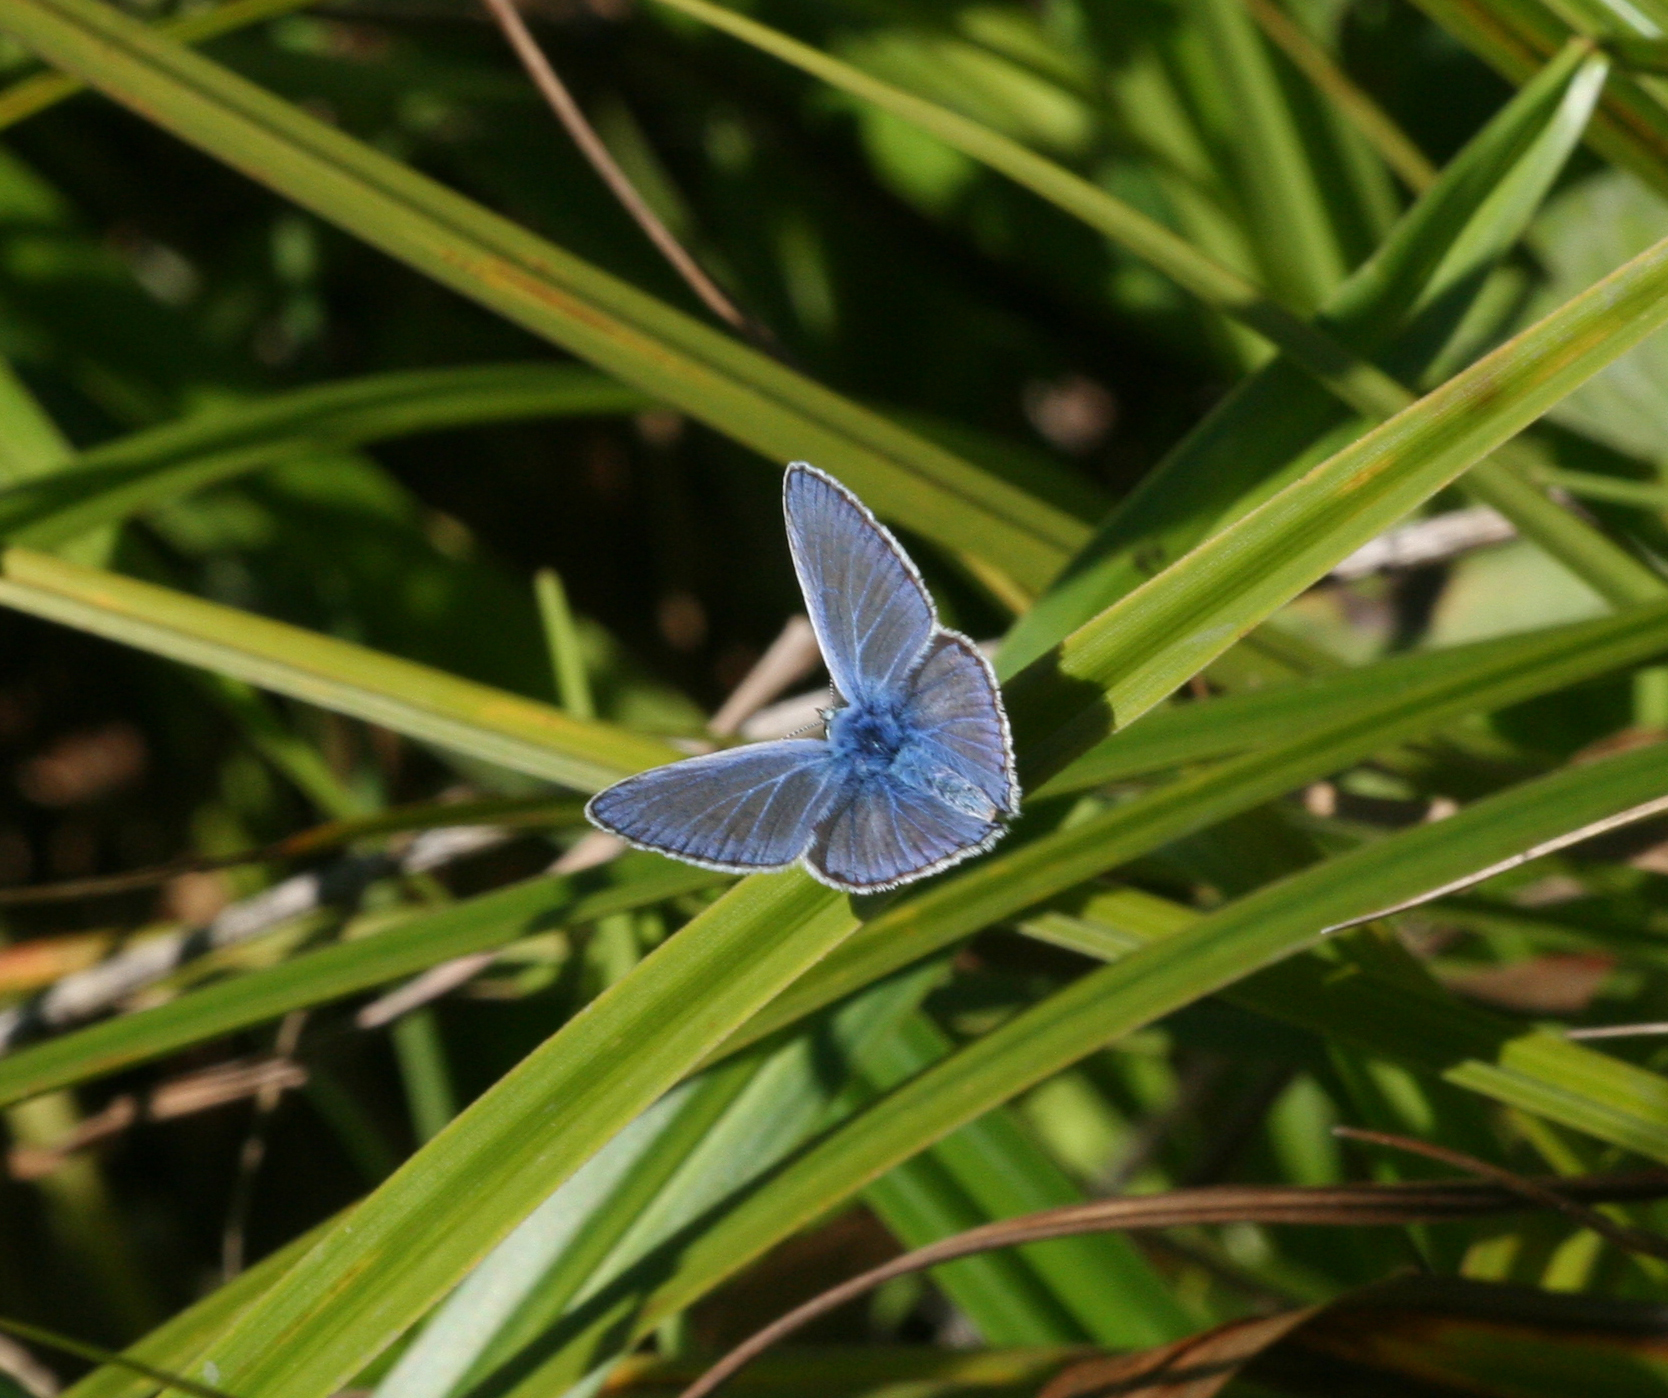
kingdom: Animalia
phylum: Arthropoda
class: Insecta
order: Lepidoptera
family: Lycaenidae
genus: Polyommatus
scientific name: Polyommatus icarus
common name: Common blue
